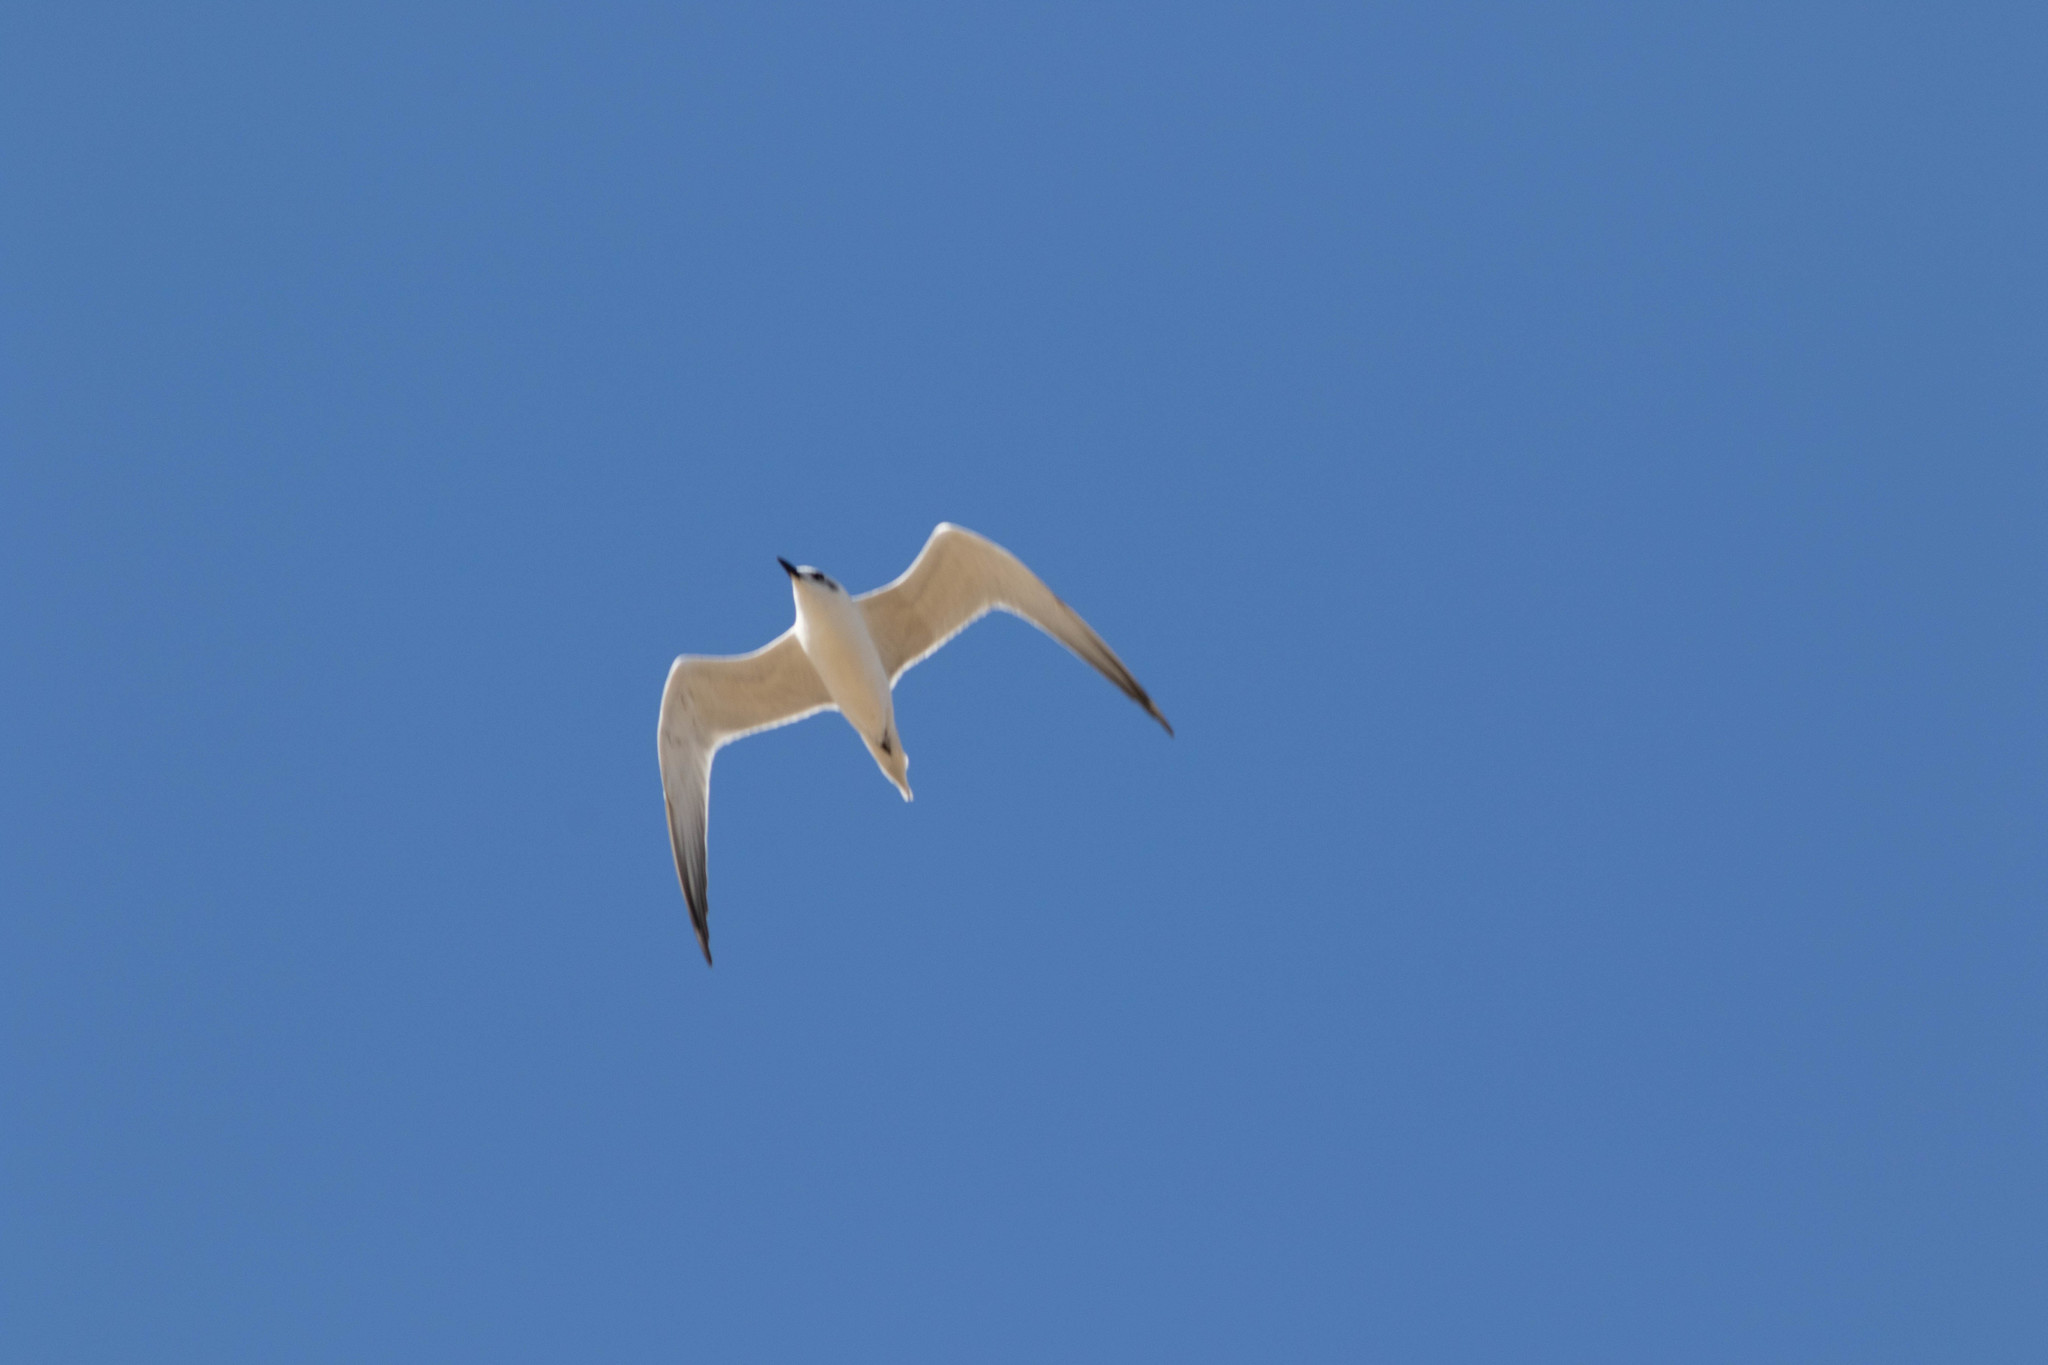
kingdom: Animalia
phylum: Chordata
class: Aves
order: Charadriiformes
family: Laridae
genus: Gelochelidon
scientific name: Gelochelidon nilotica
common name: Gull-billed tern
